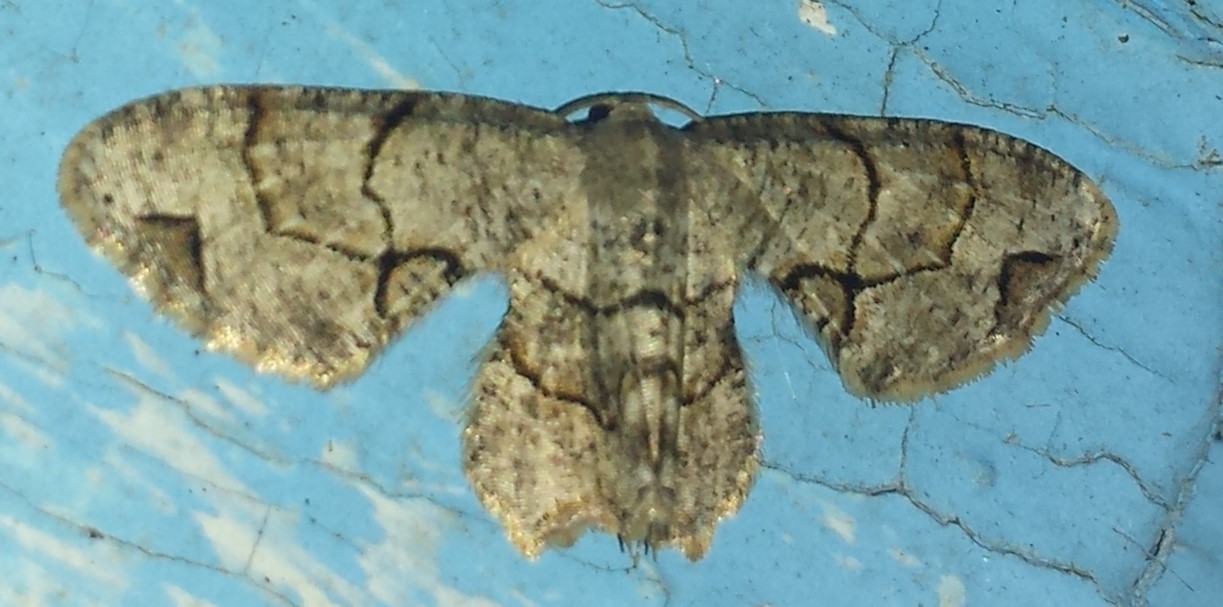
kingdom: Animalia
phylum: Arthropoda
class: Insecta
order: Lepidoptera
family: Uraniidae
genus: Epiplema
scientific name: Epiplema Callizzia amorata
